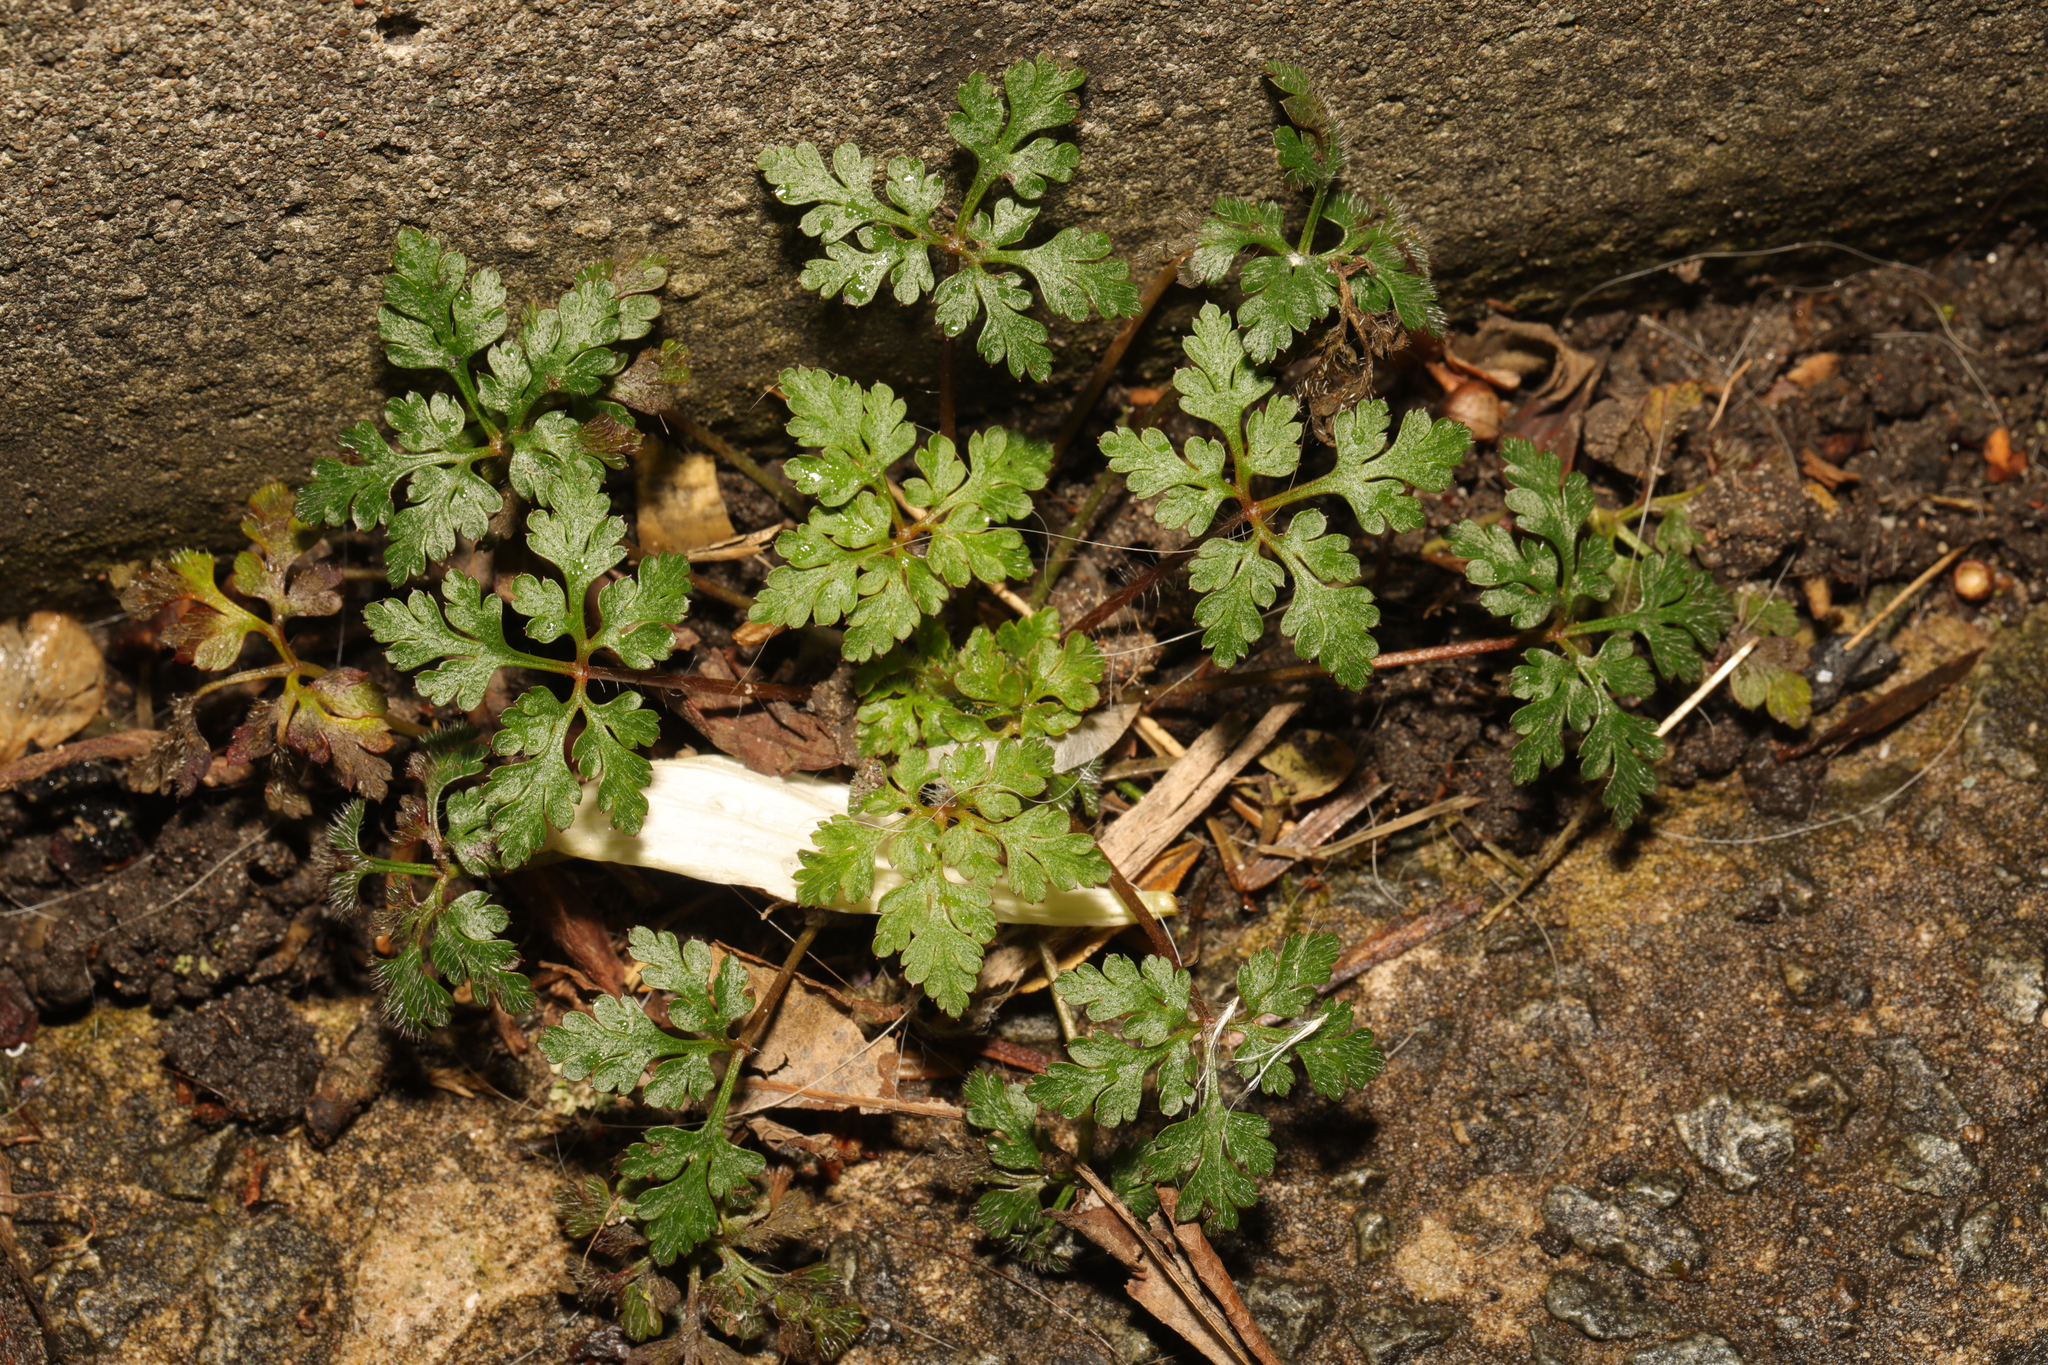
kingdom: Plantae
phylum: Tracheophyta
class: Magnoliopsida
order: Geraniales
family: Geraniaceae
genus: Geranium
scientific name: Geranium robertianum
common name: Herb-robert
